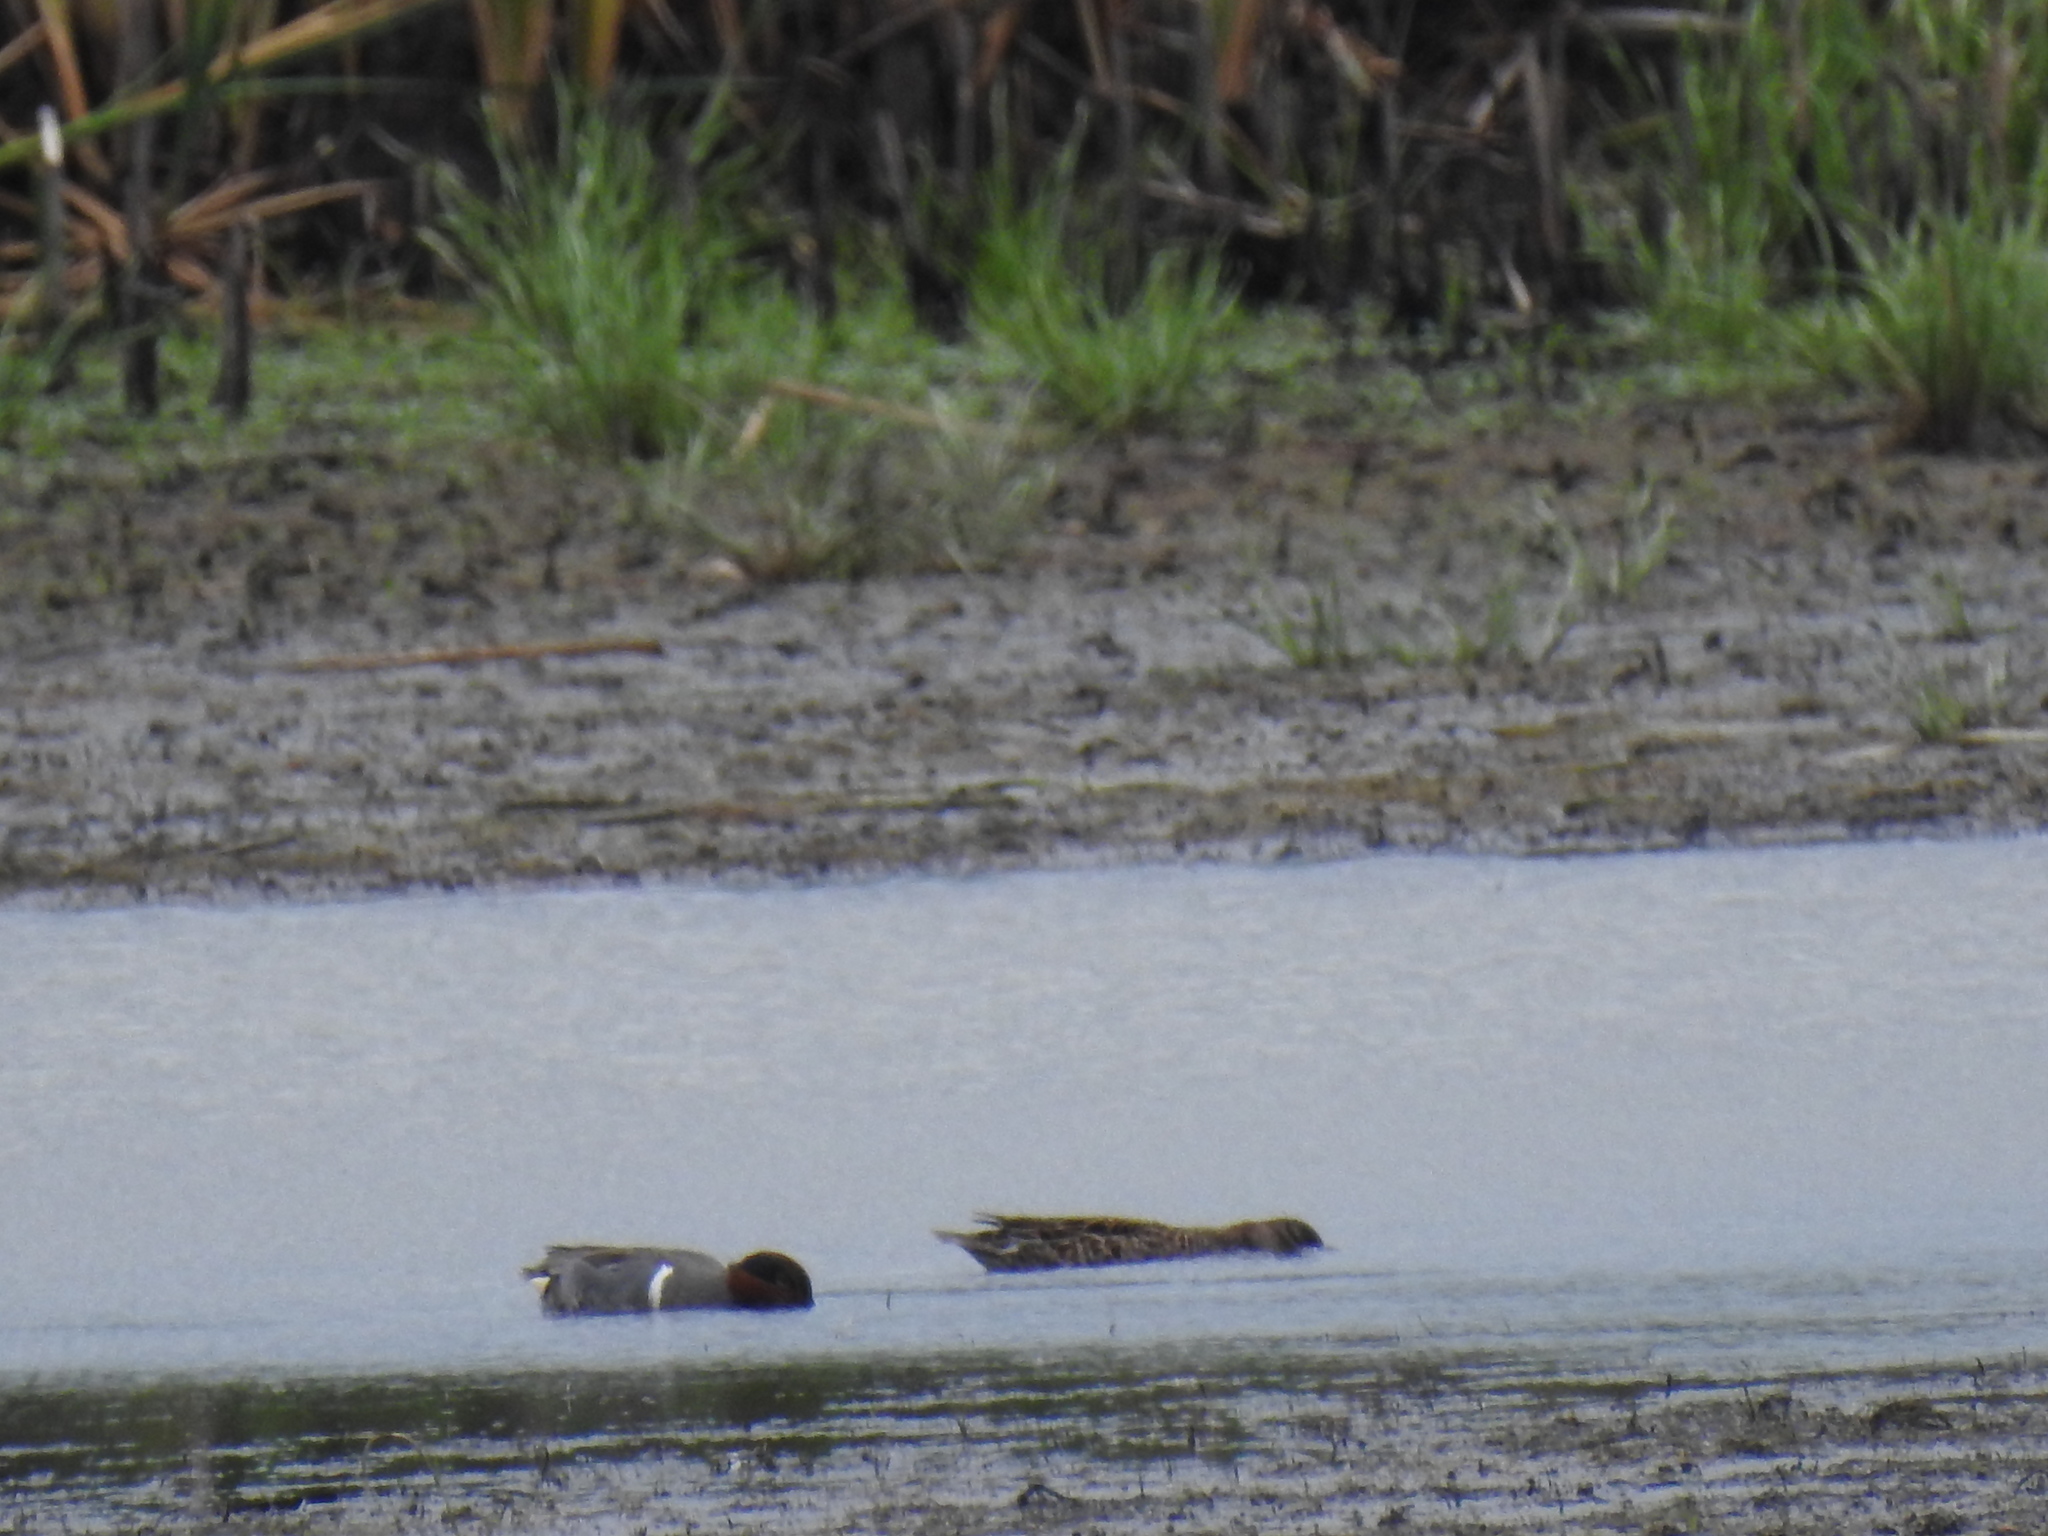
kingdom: Animalia
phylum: Chordata
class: Aves
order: Anseriformes
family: Anatidae
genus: Anas
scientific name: Anas crecca
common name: Eurasian teal
